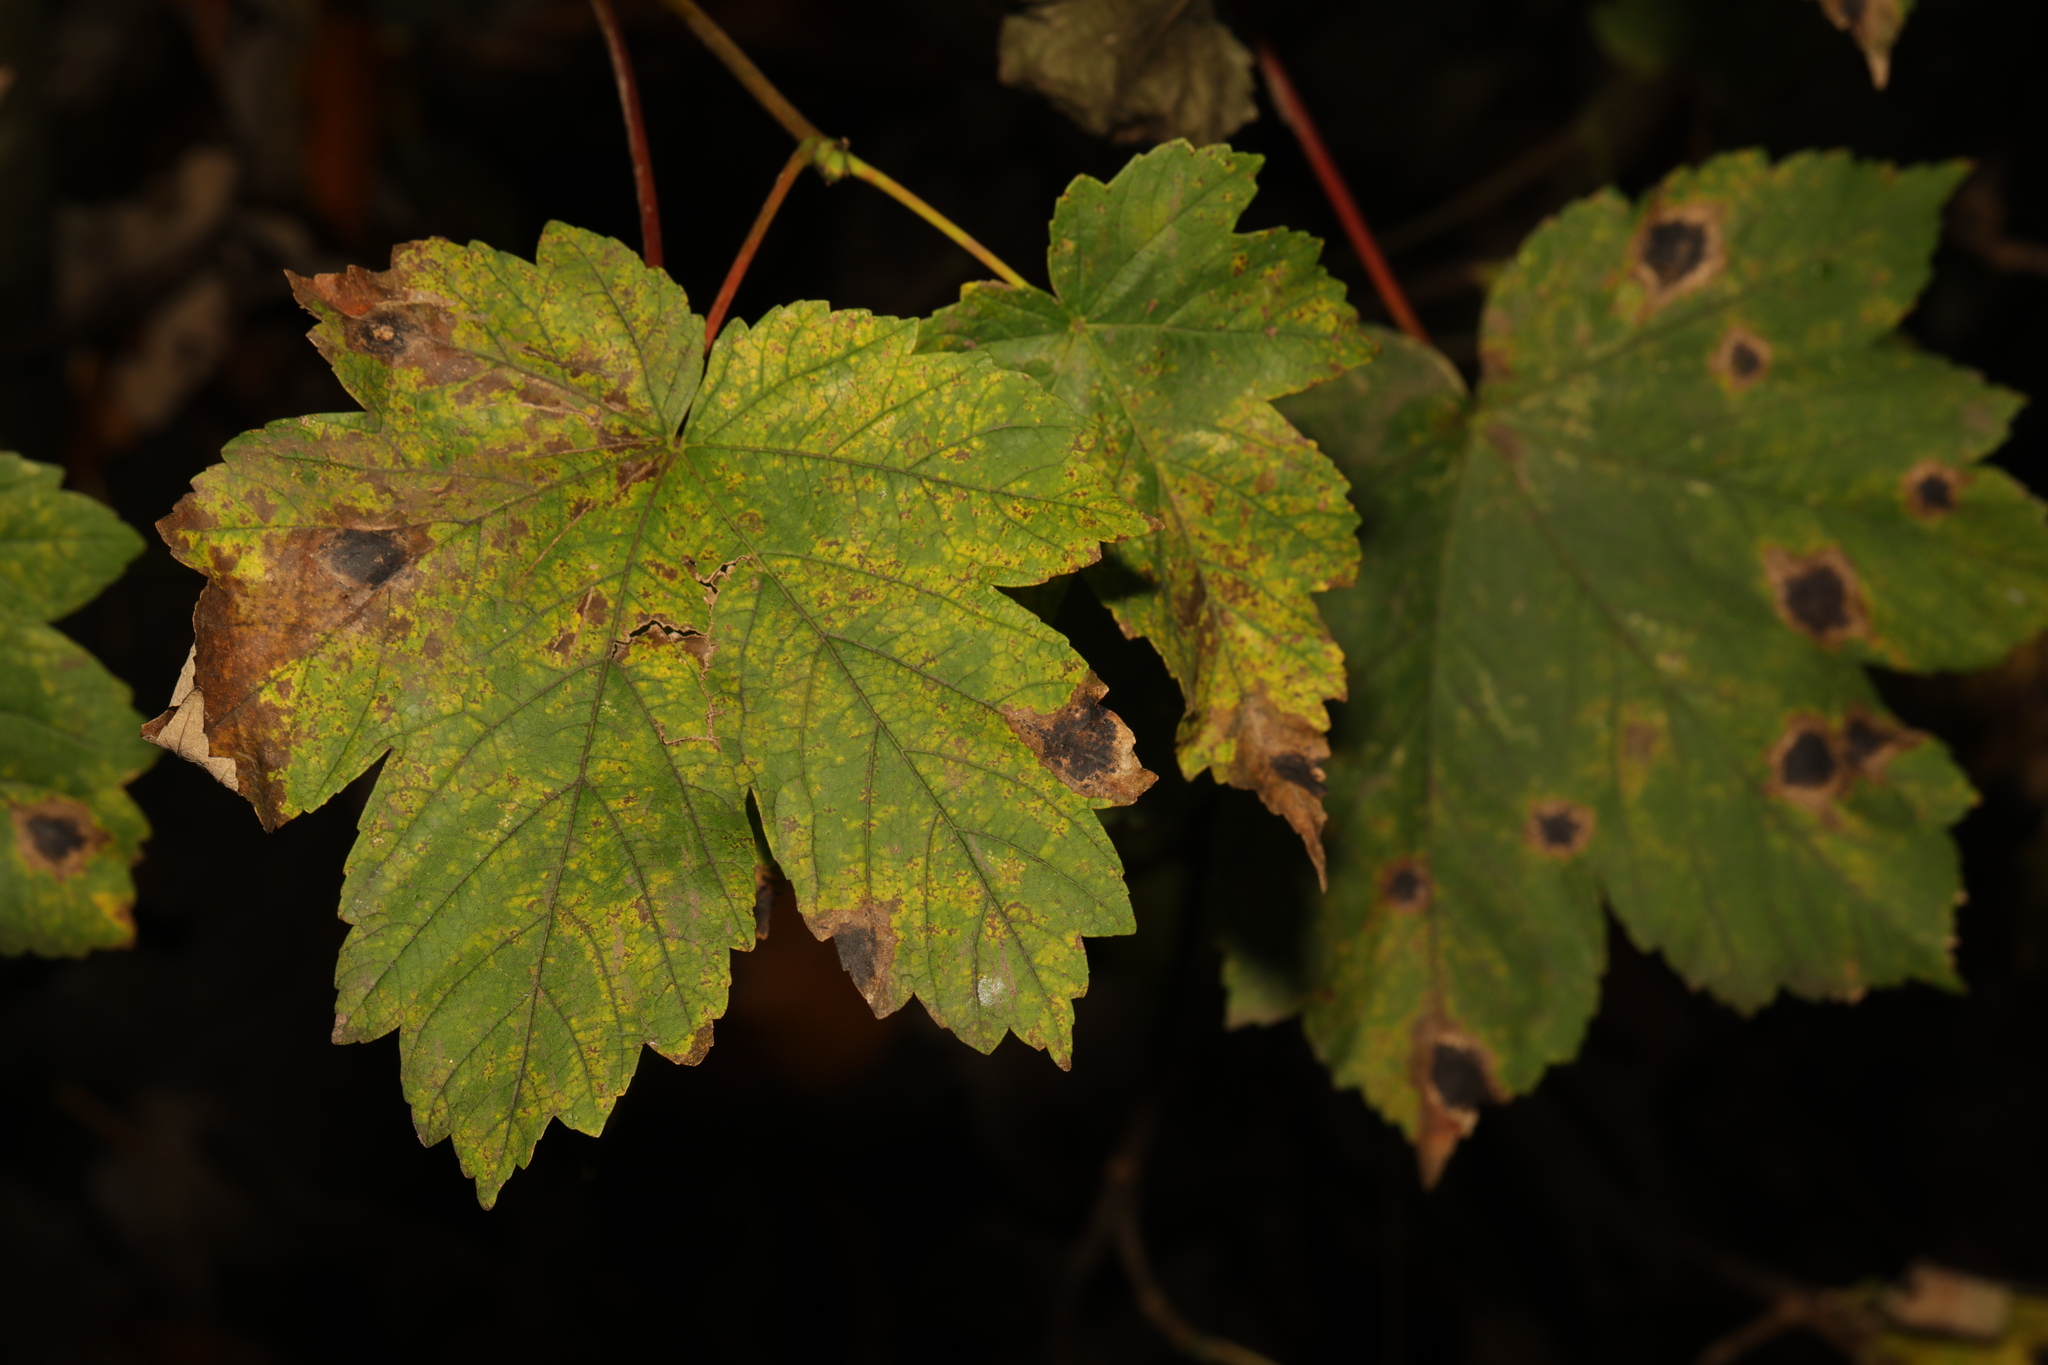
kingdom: Plantae
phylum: Tracheophyta
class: Magnoliopsida
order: Sapindales
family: Sapindaceae
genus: Acer
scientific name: Acer pseudoplatanus
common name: Sycamore
